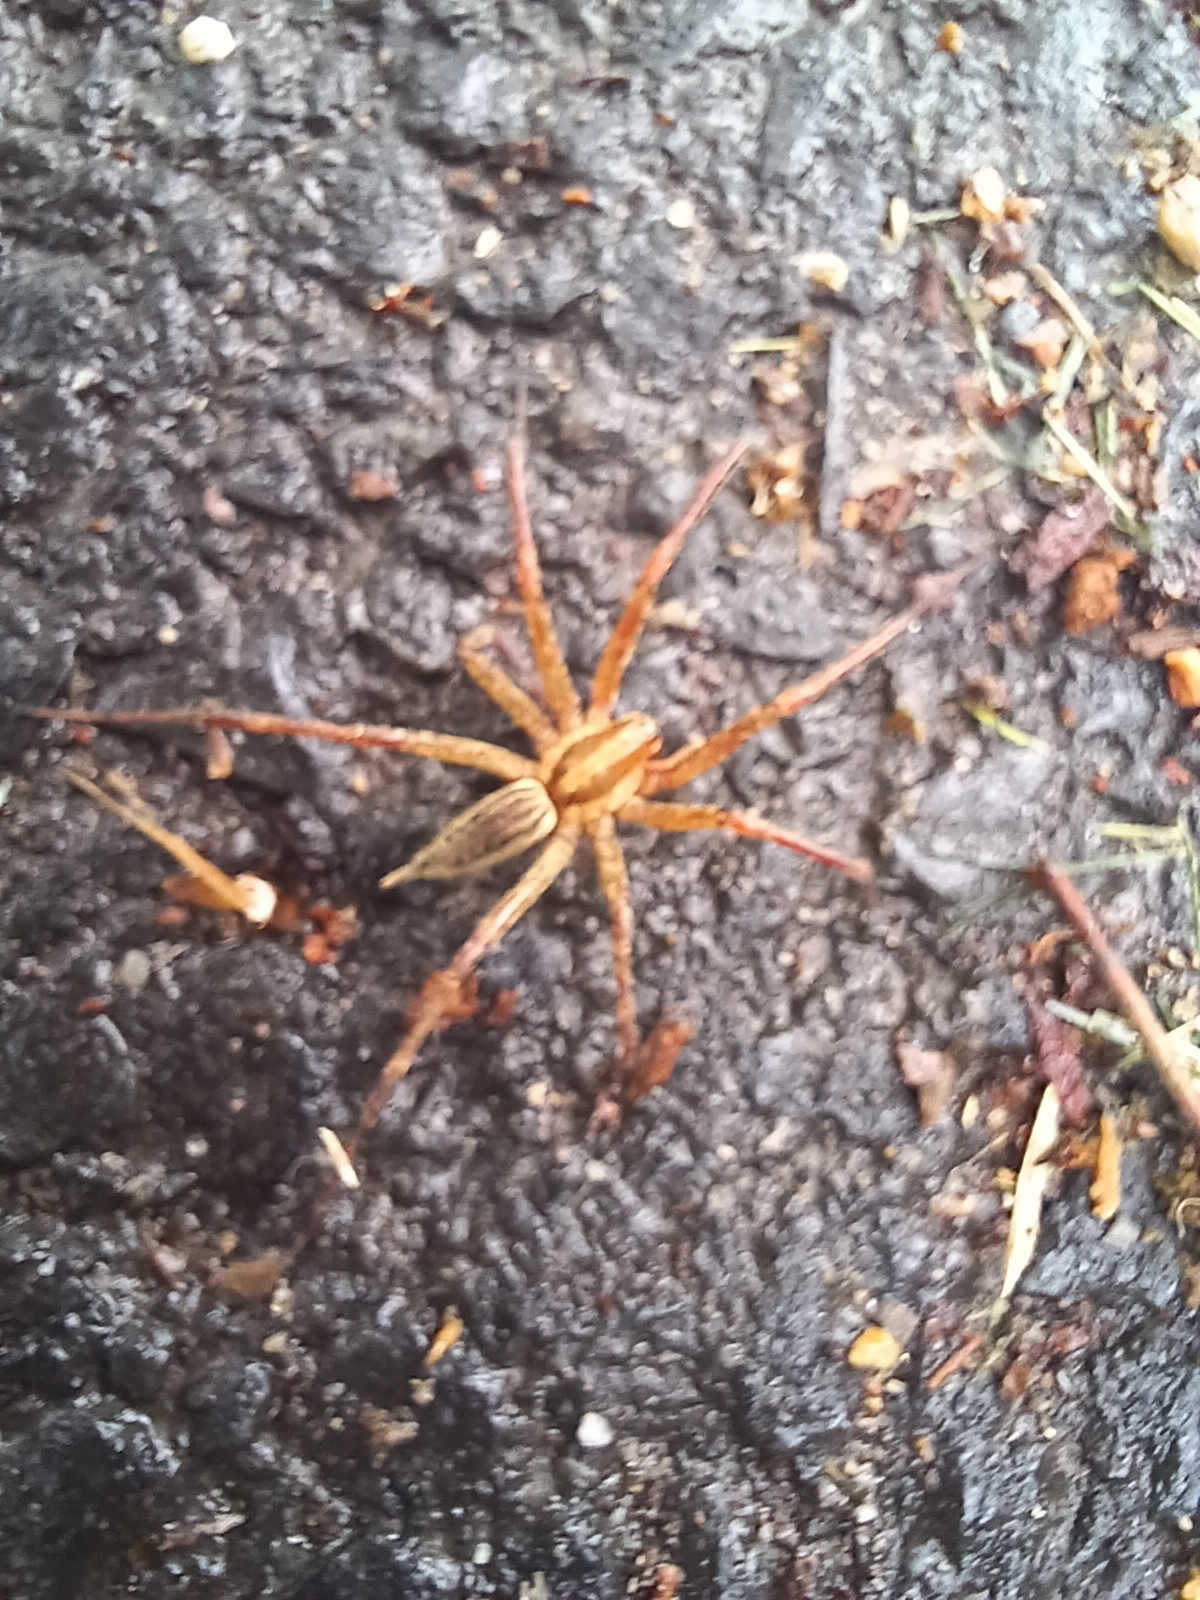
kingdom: Animalia
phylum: Arthropoda
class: Arachnida
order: Araneae
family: Agelenidae
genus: Agelenopsis
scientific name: Agelenopsis
